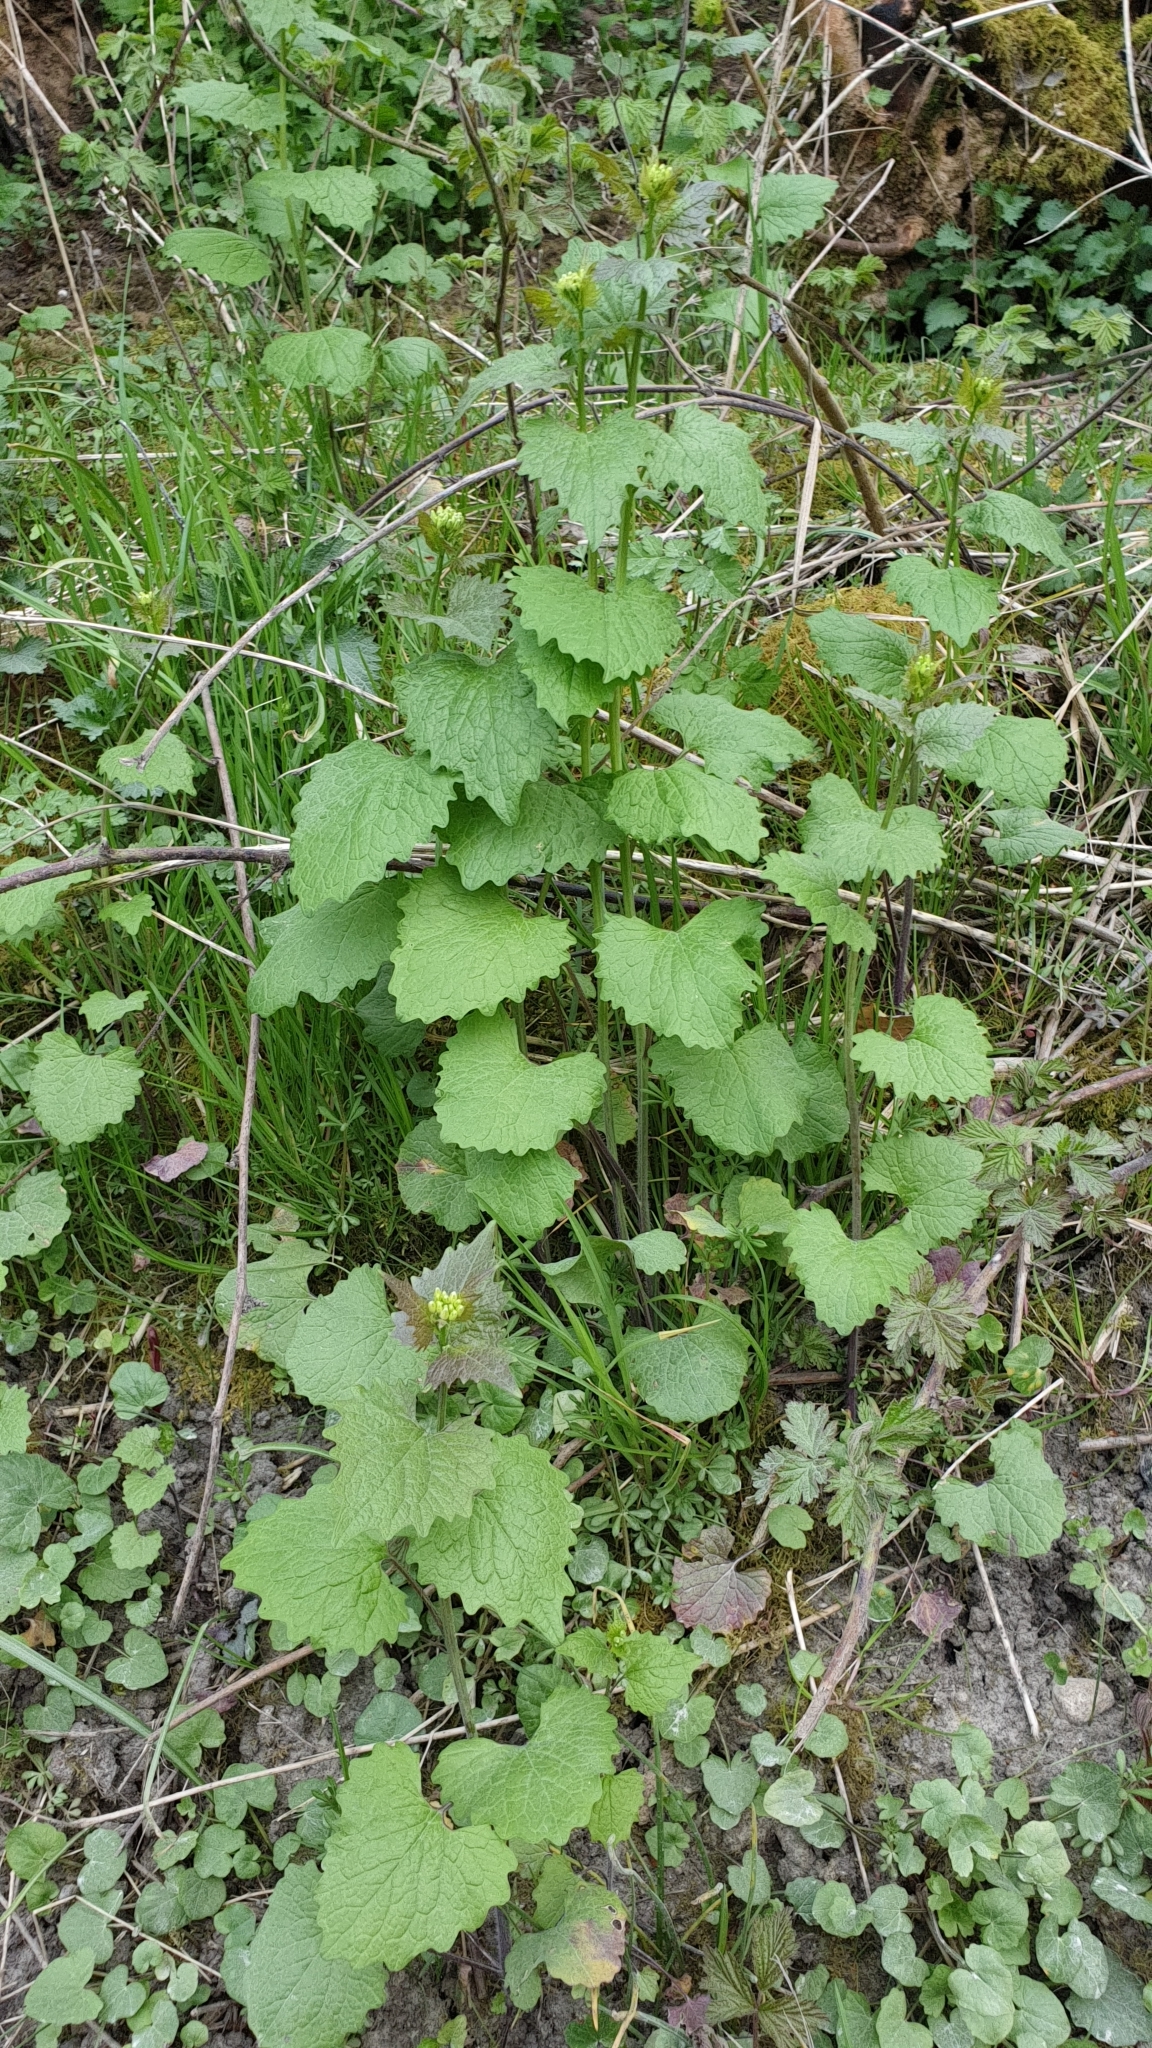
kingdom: Plantae
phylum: Tracheophyta
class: Magnoliopsida
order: Brassicales
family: Brassicaceae
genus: Alliaria
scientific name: Alliaria petiolata
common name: Garlic mustard
